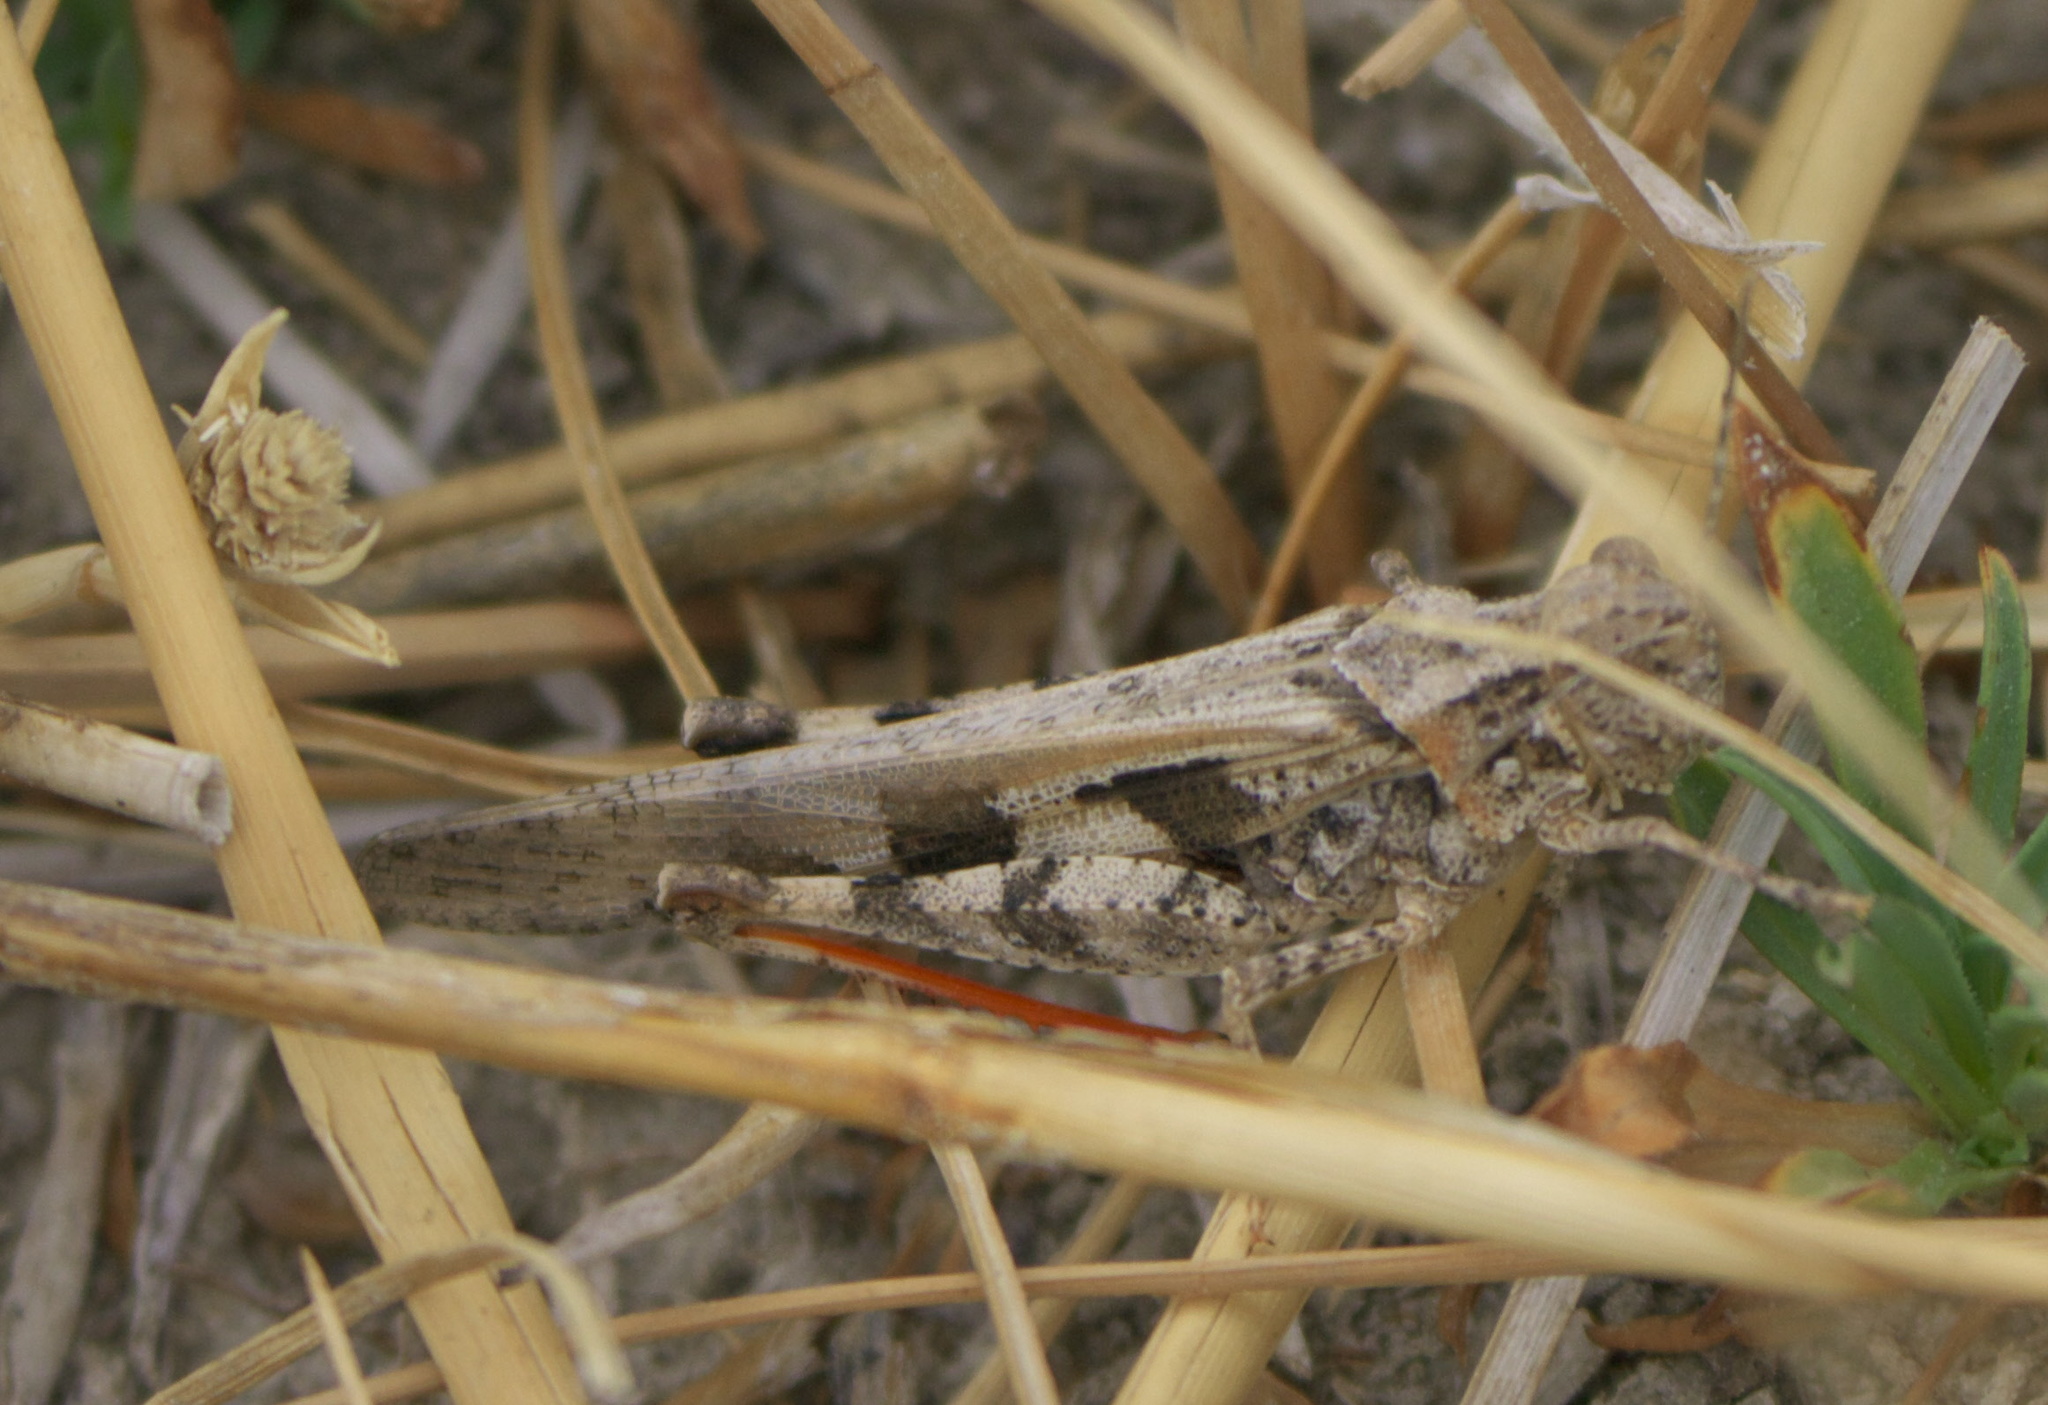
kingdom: Animalia
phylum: Arthropoda
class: Insecta
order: Orthoptera
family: Acrididae
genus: Conozoa
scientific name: Conozoa sulcifrons
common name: Groove-headed grasshopper
